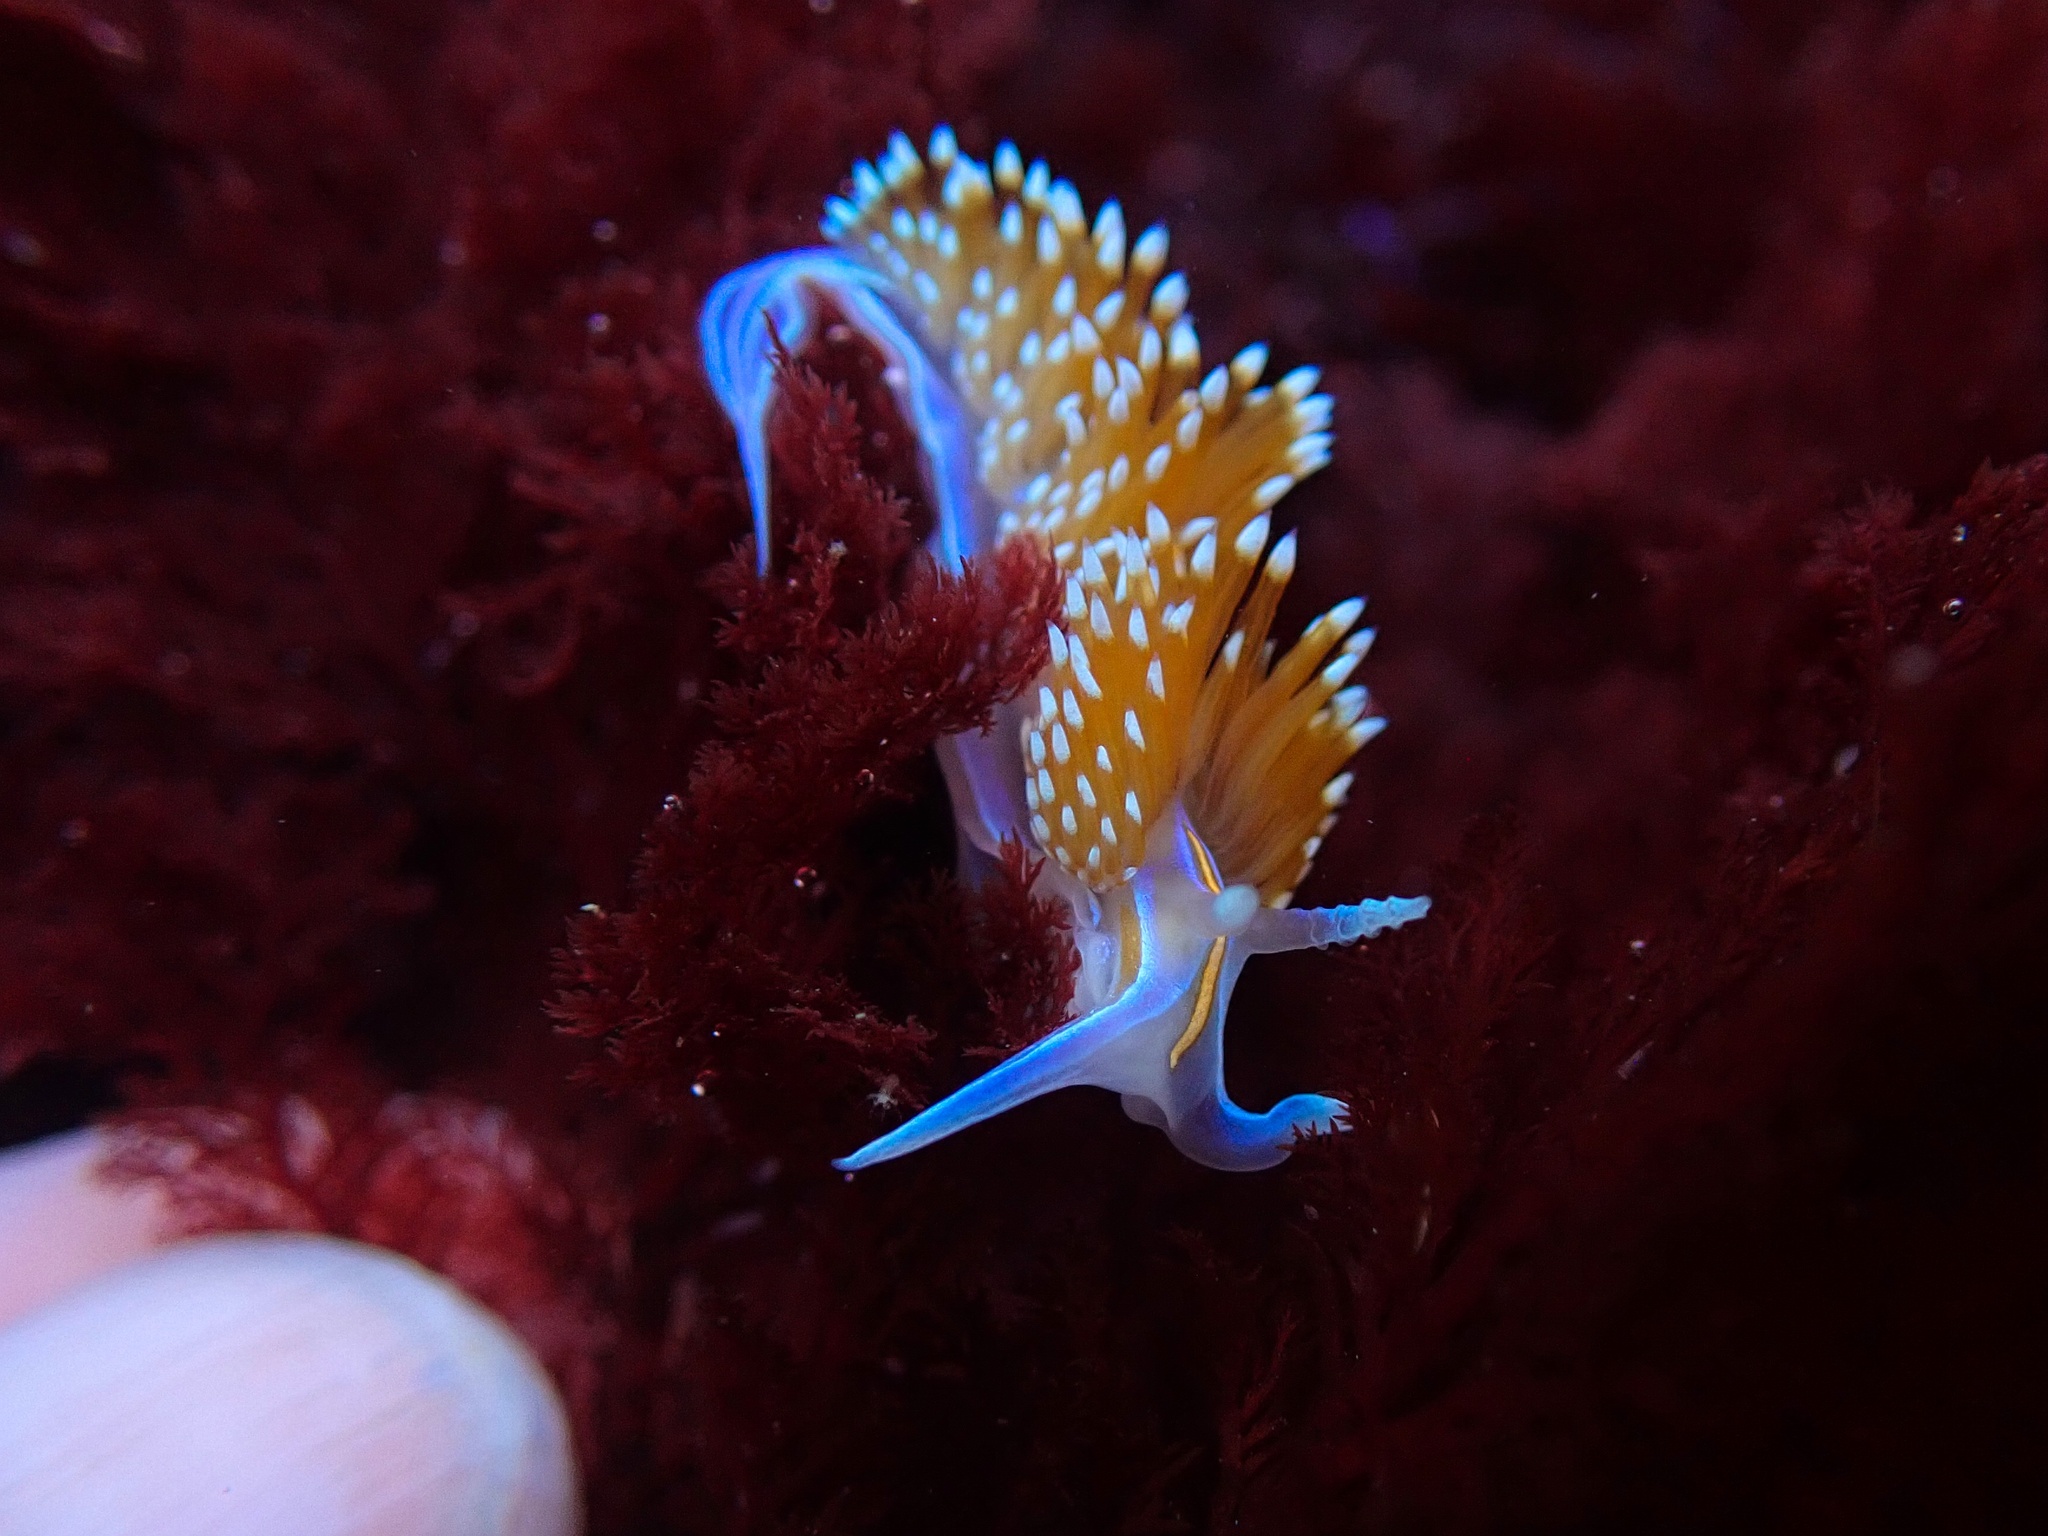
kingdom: Animalia
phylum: Mollusca
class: Gastropoda
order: Nudibranchia
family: Myrrhinidae
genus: Hermissenda
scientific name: Hermissenda opalescens
